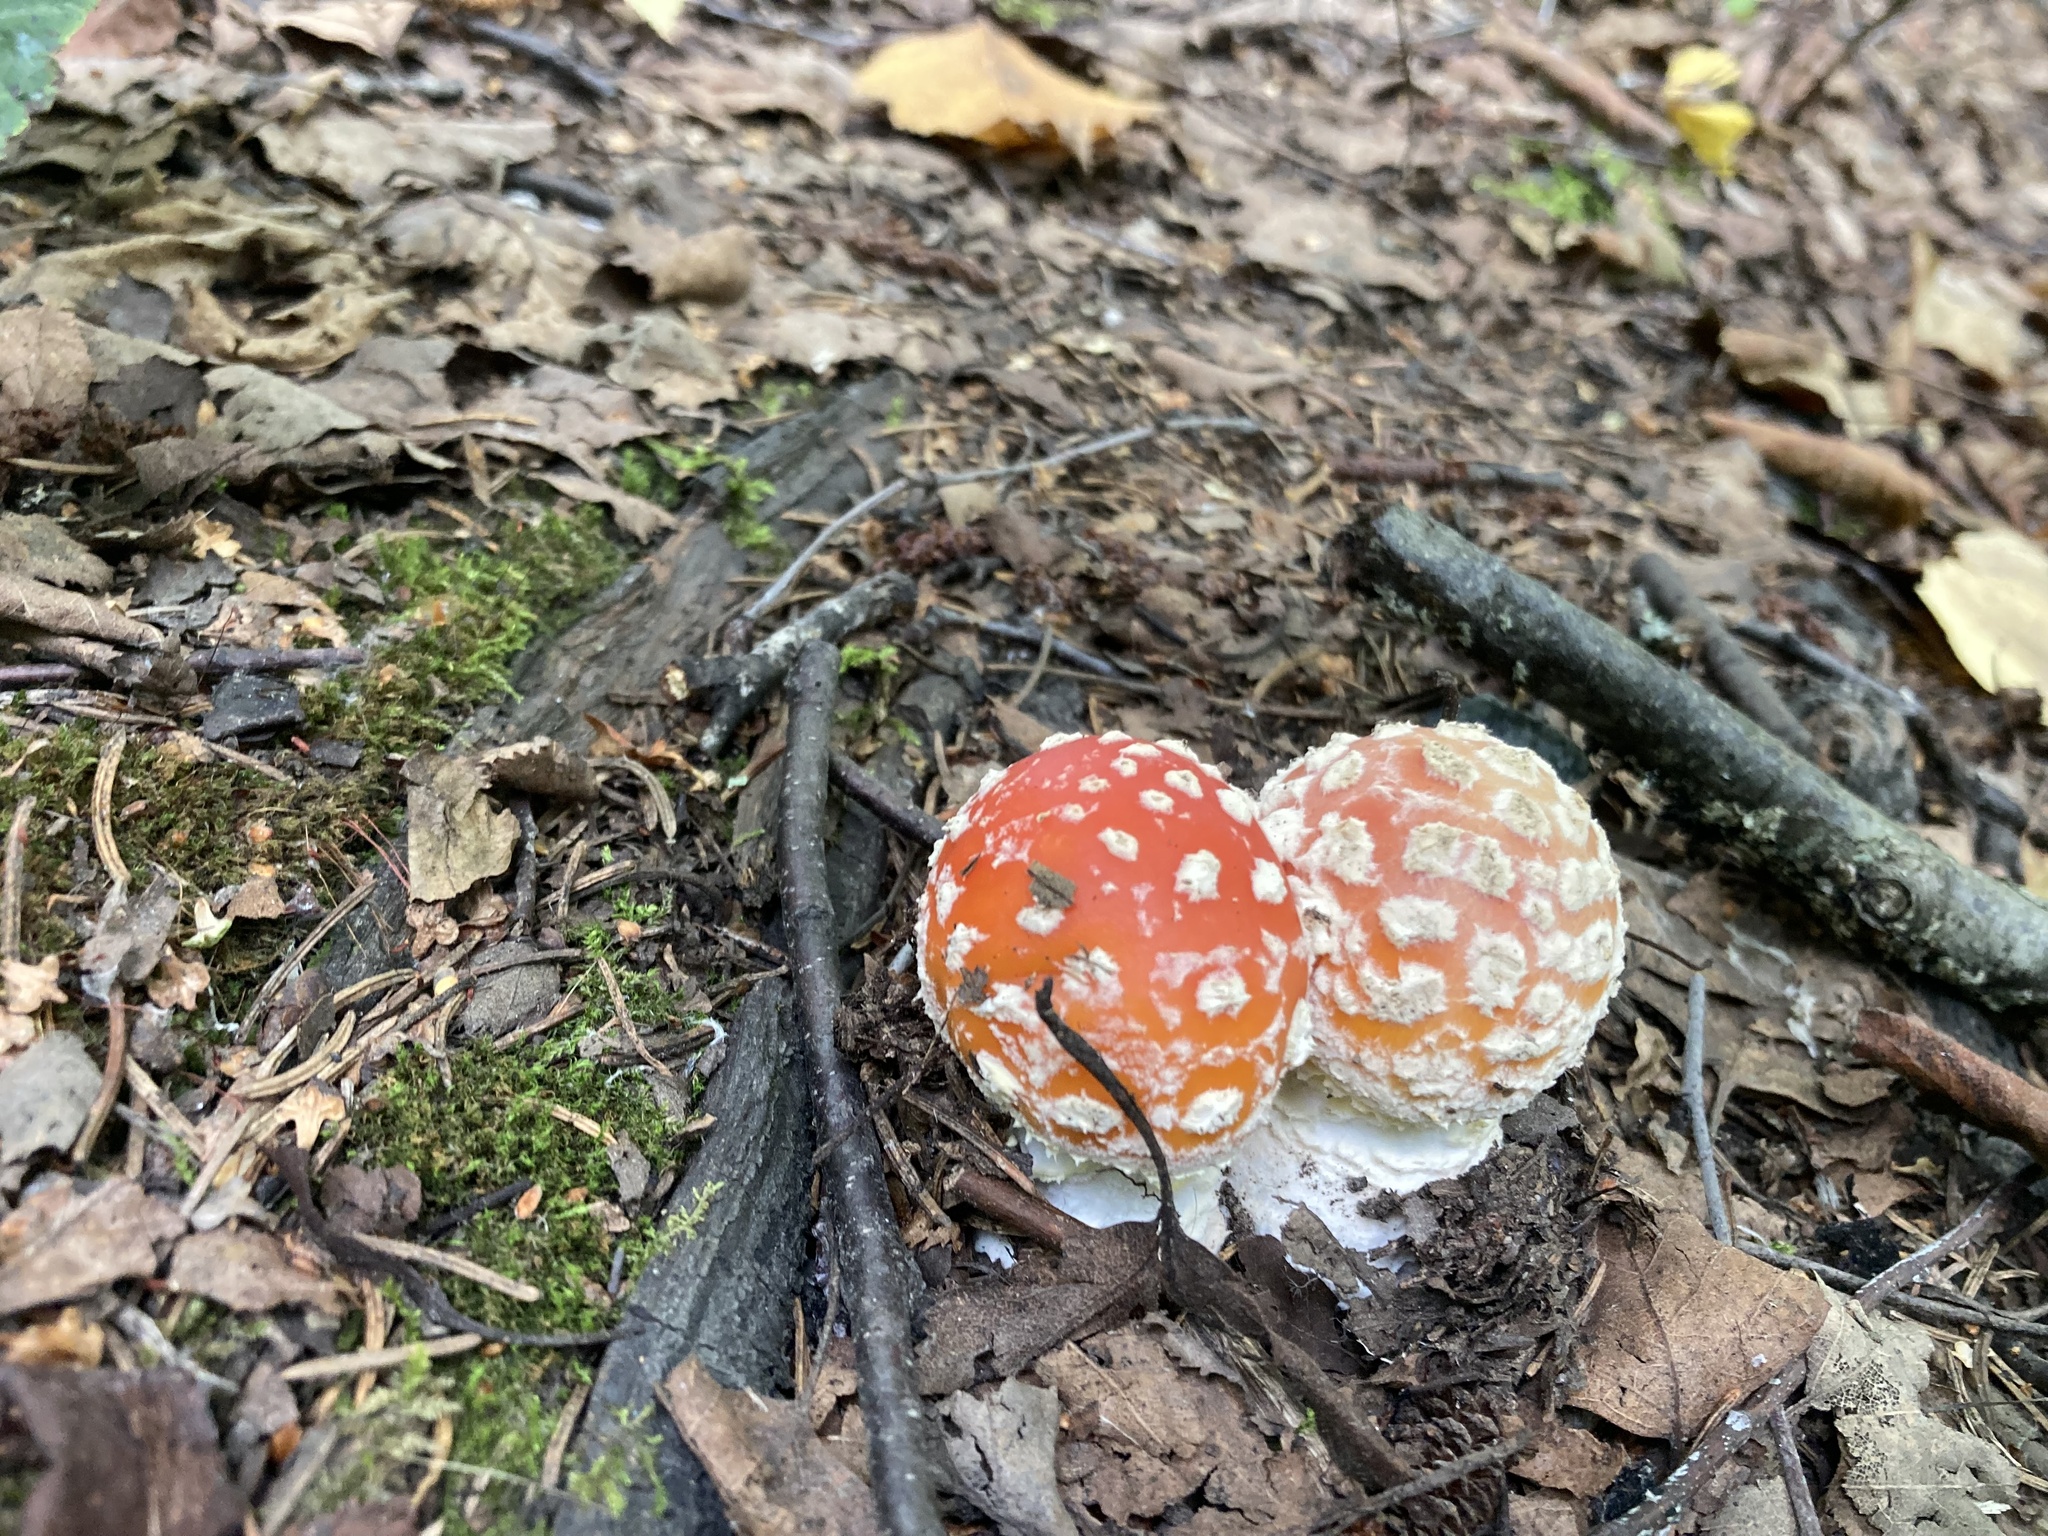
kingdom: Fungi
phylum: Basidiomycota
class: Agaricomycetes
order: Agaricales
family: Amanitaceae
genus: Amanita
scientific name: Amanita muscaria
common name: Fly agaric
